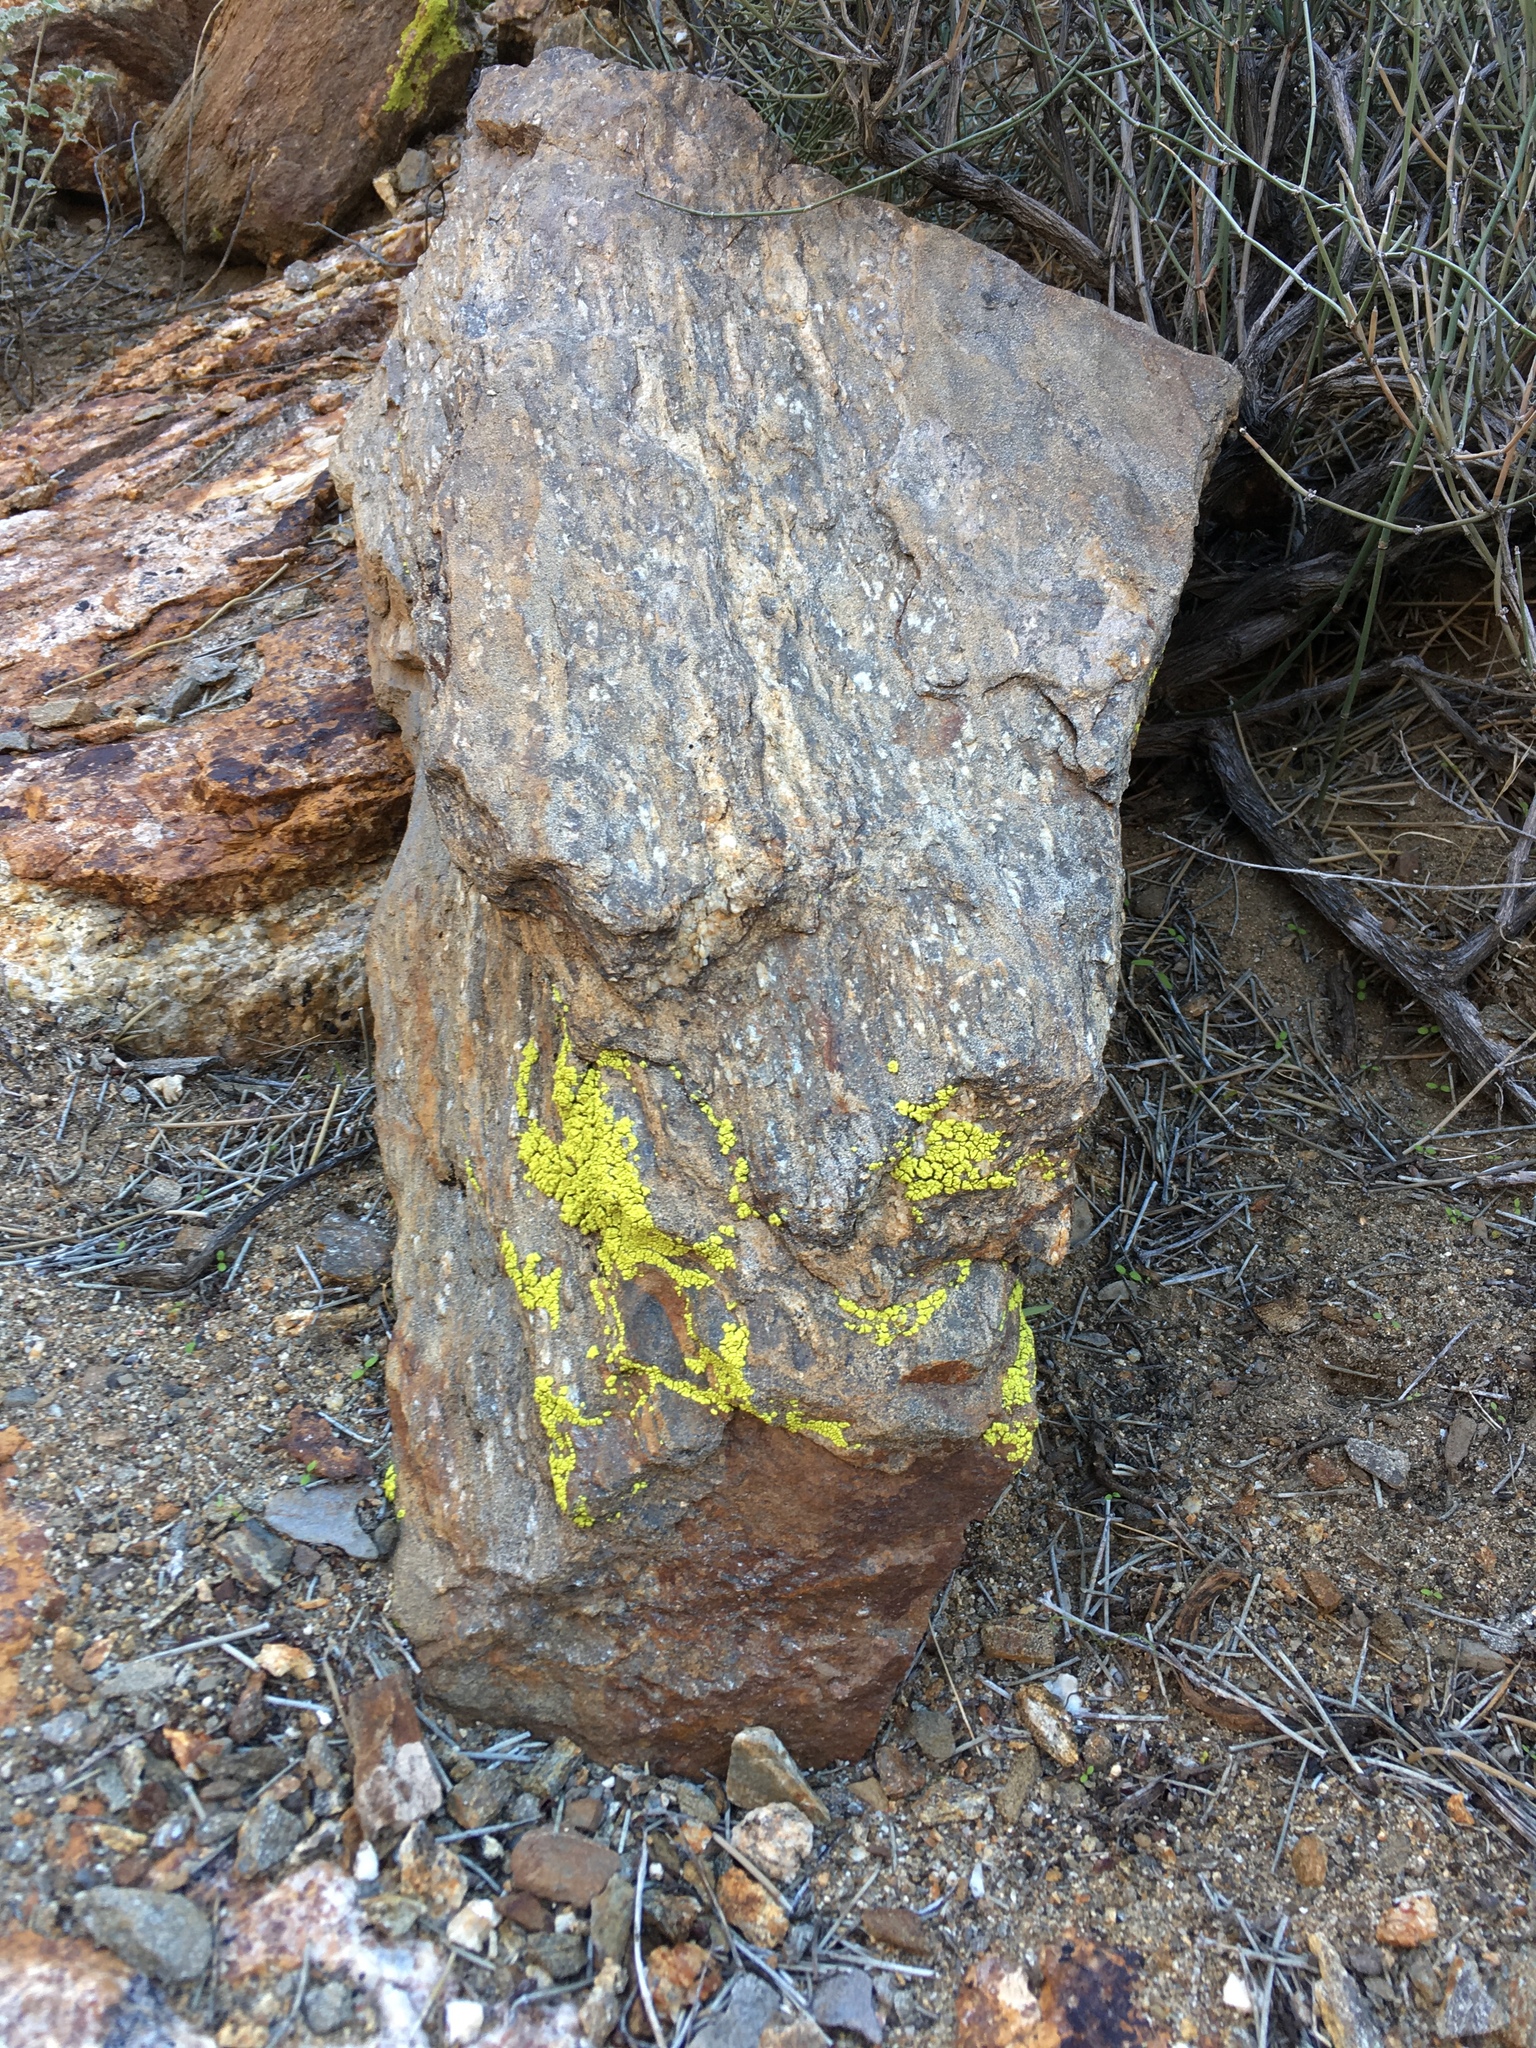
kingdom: Fungi
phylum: Ascomycota
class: Lecanoromycetes
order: Acarosporales
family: Acarosporaceae
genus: Acarospora
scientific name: Acarospora socialis
